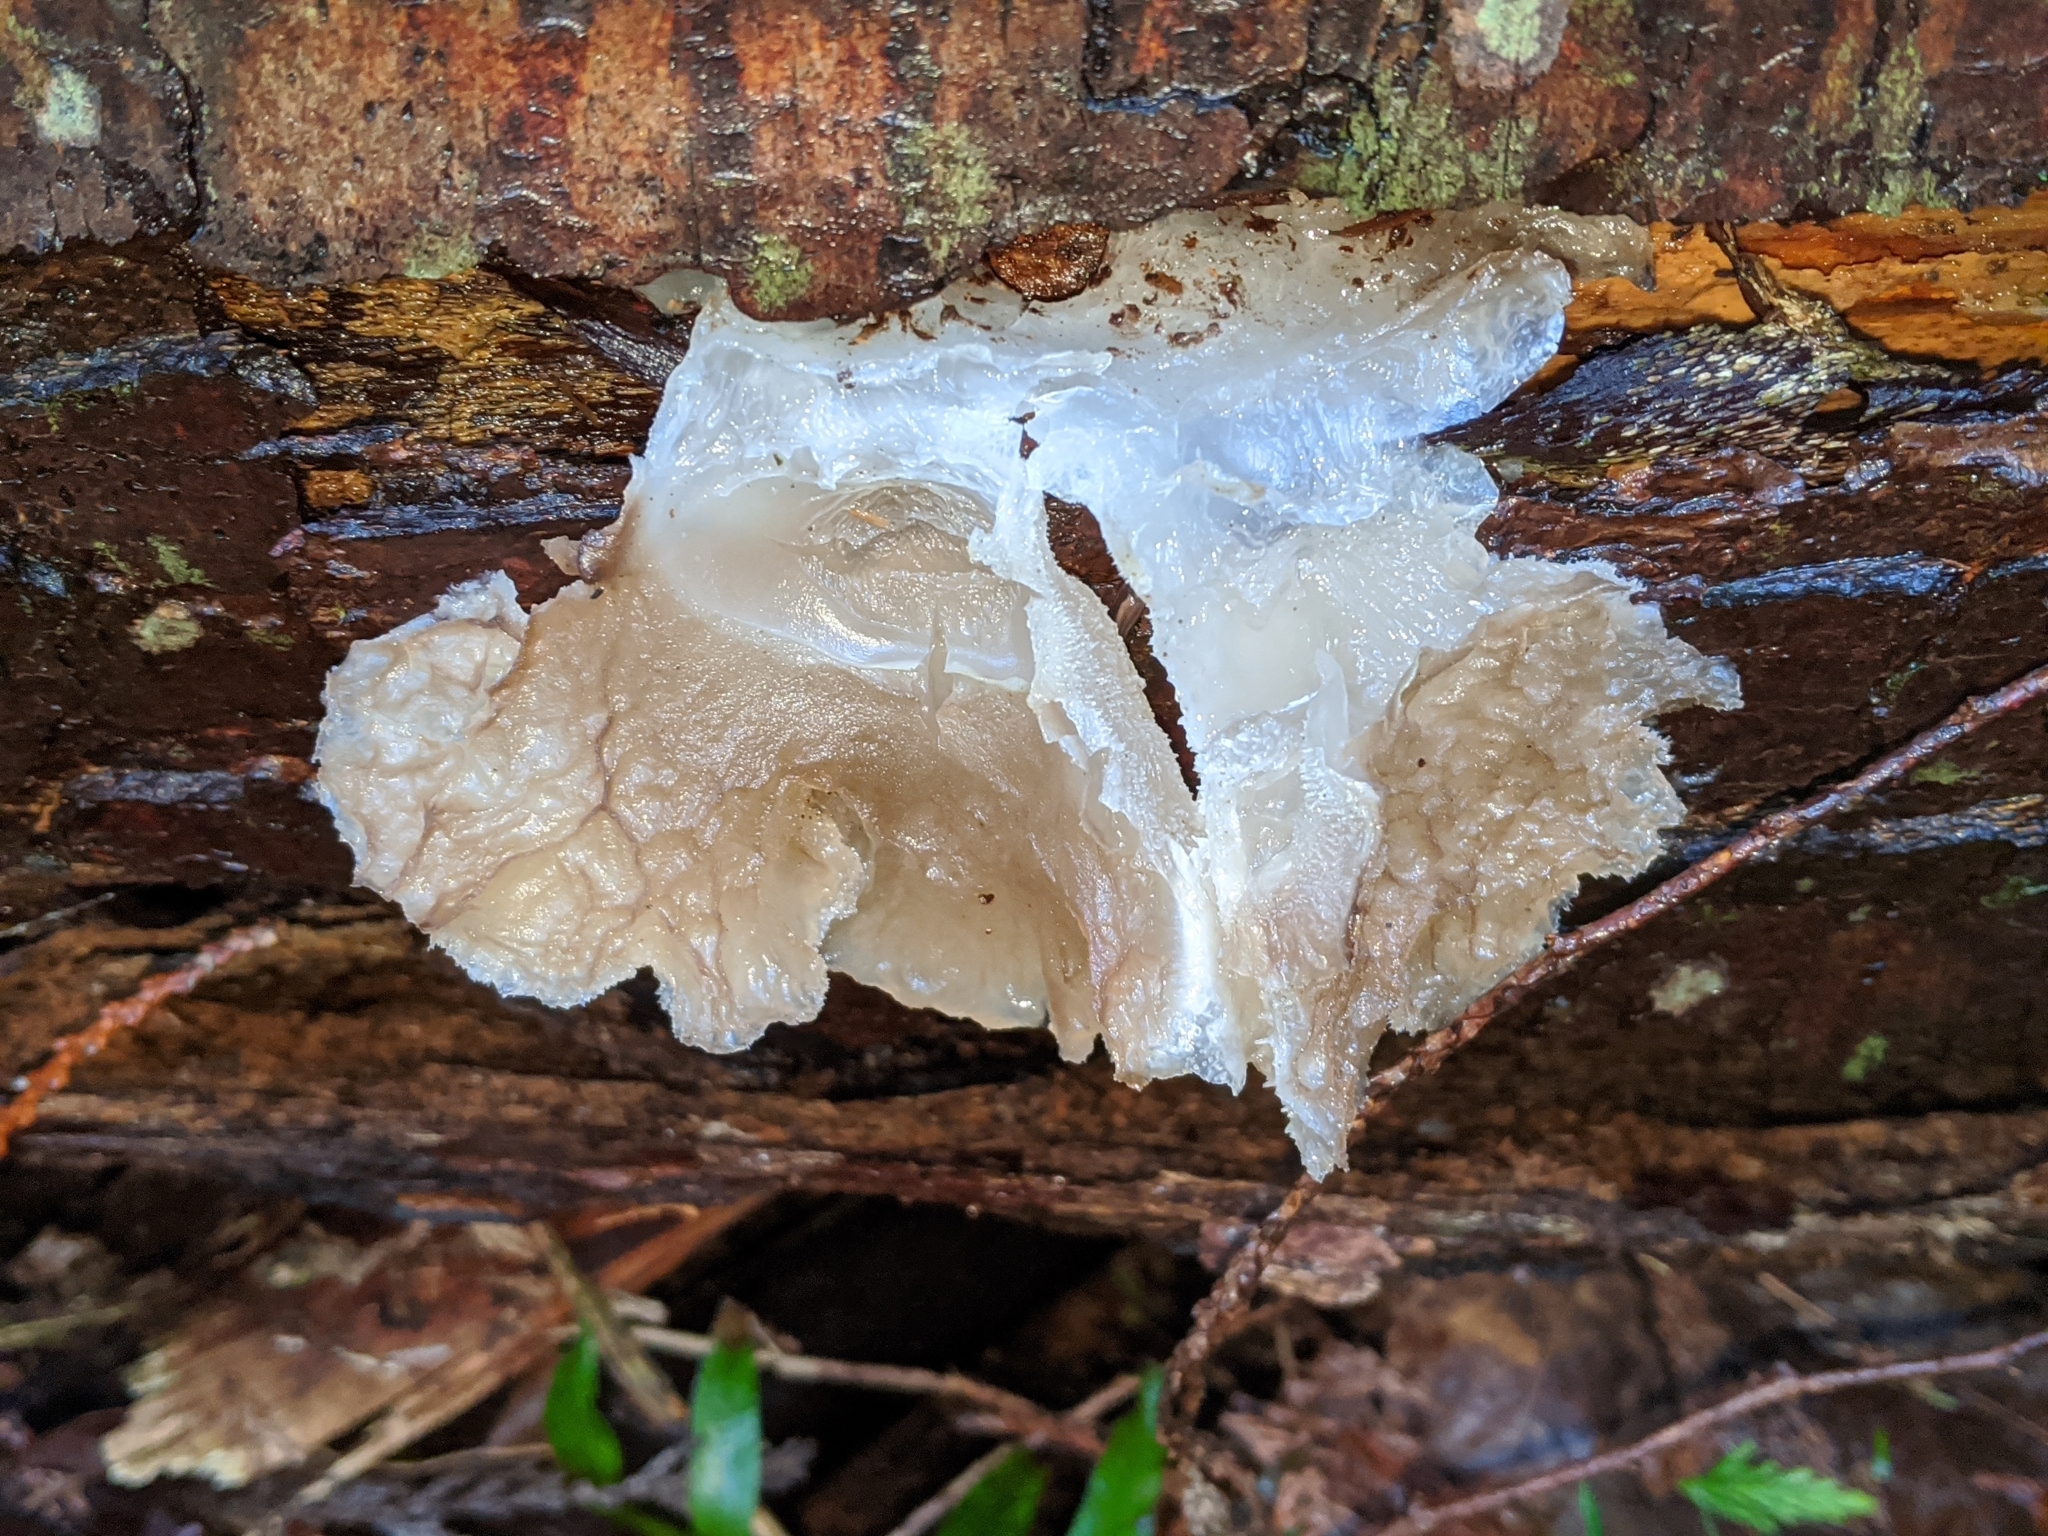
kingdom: Fungi
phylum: Basidiomycota
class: Agaricomycetes
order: Auriculariales
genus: Pseudohydnum
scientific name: Pseudohydnum gelatinosum
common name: Jelly tongue
